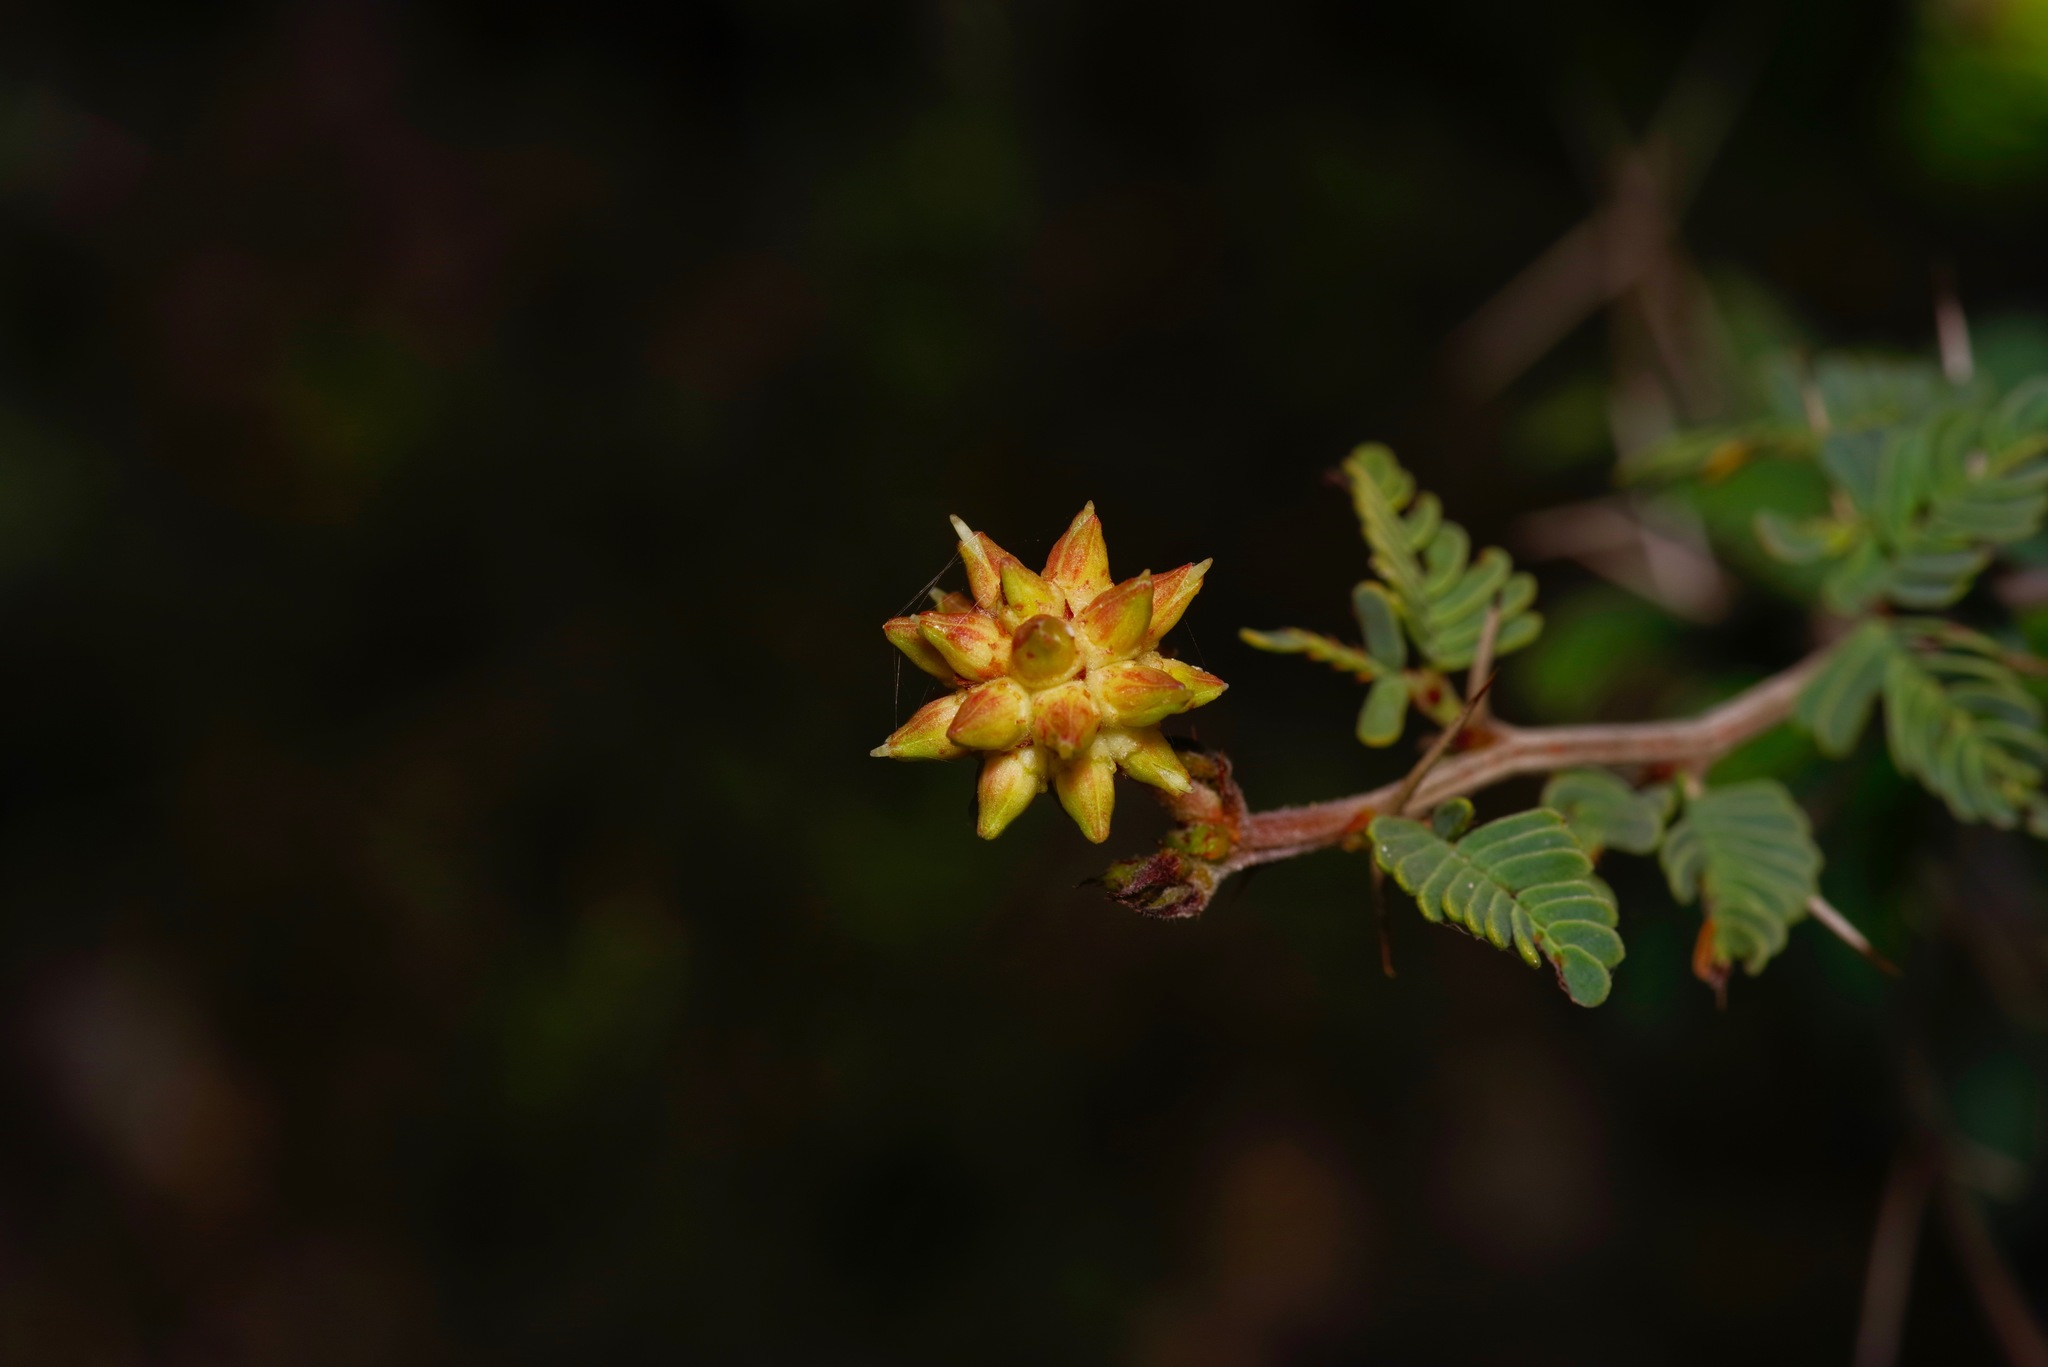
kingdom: Plantae
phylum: Tracheophyta
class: Magnoliopsida
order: Fabales
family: Fabaceae
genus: Prosopis
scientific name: Prosopis cinerascens
